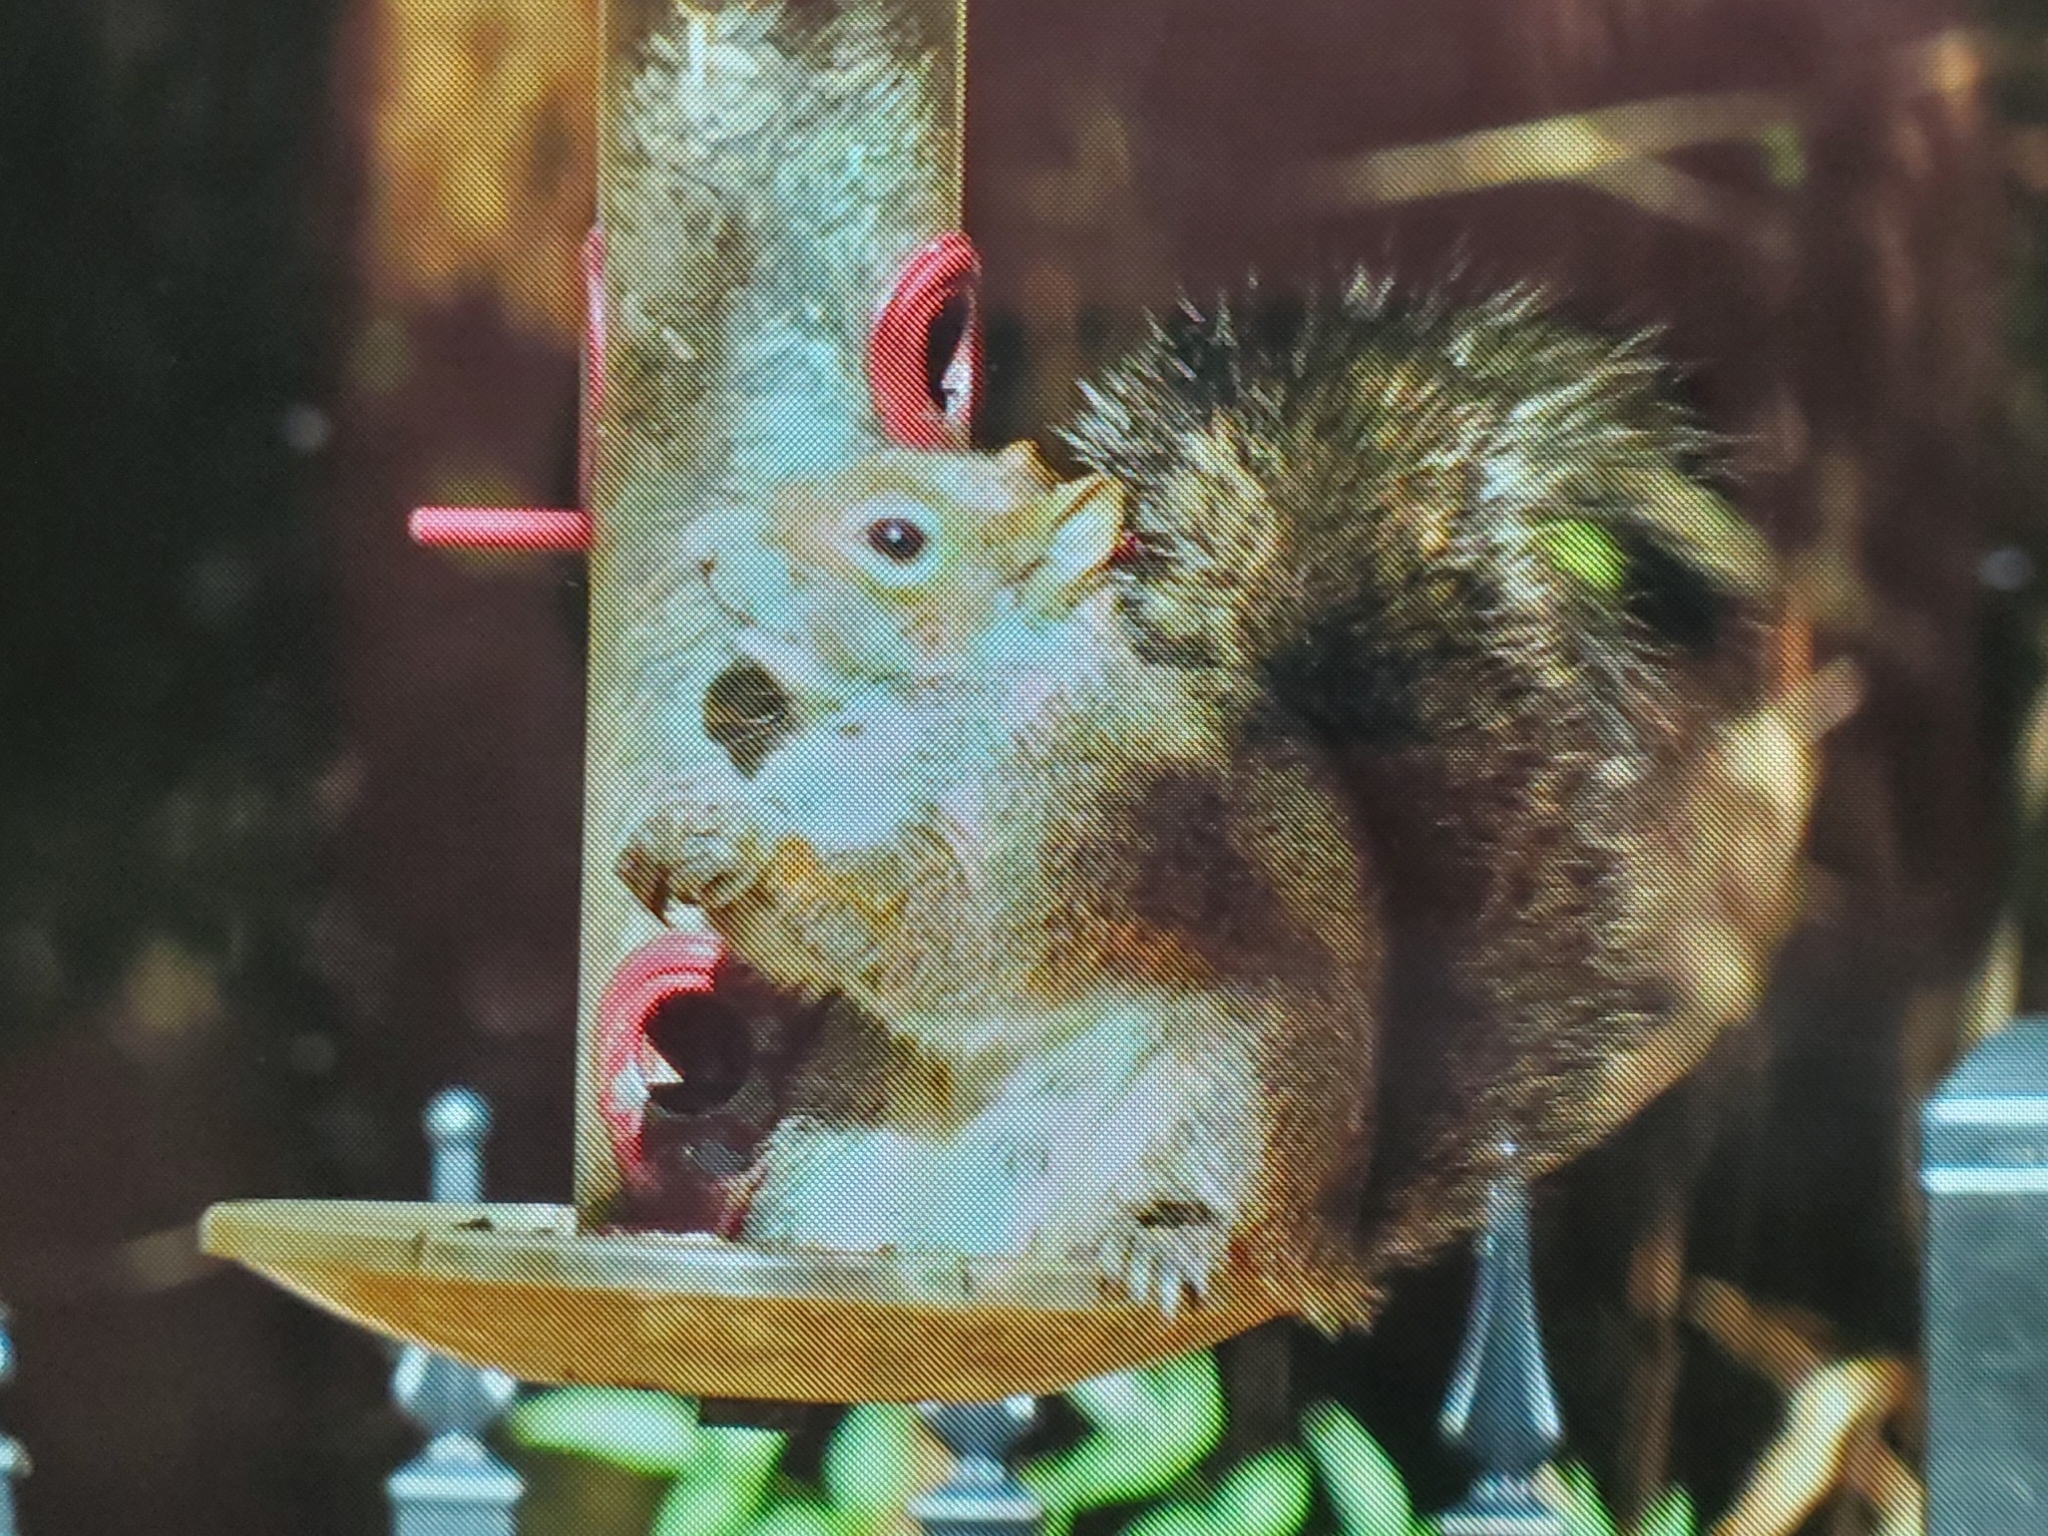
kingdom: Animalia
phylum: Chordata
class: Mammalia
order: Rodentia
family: Sciuridae
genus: Sciurus
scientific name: Sciurus carolinensis
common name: Eastern gray squirrel
